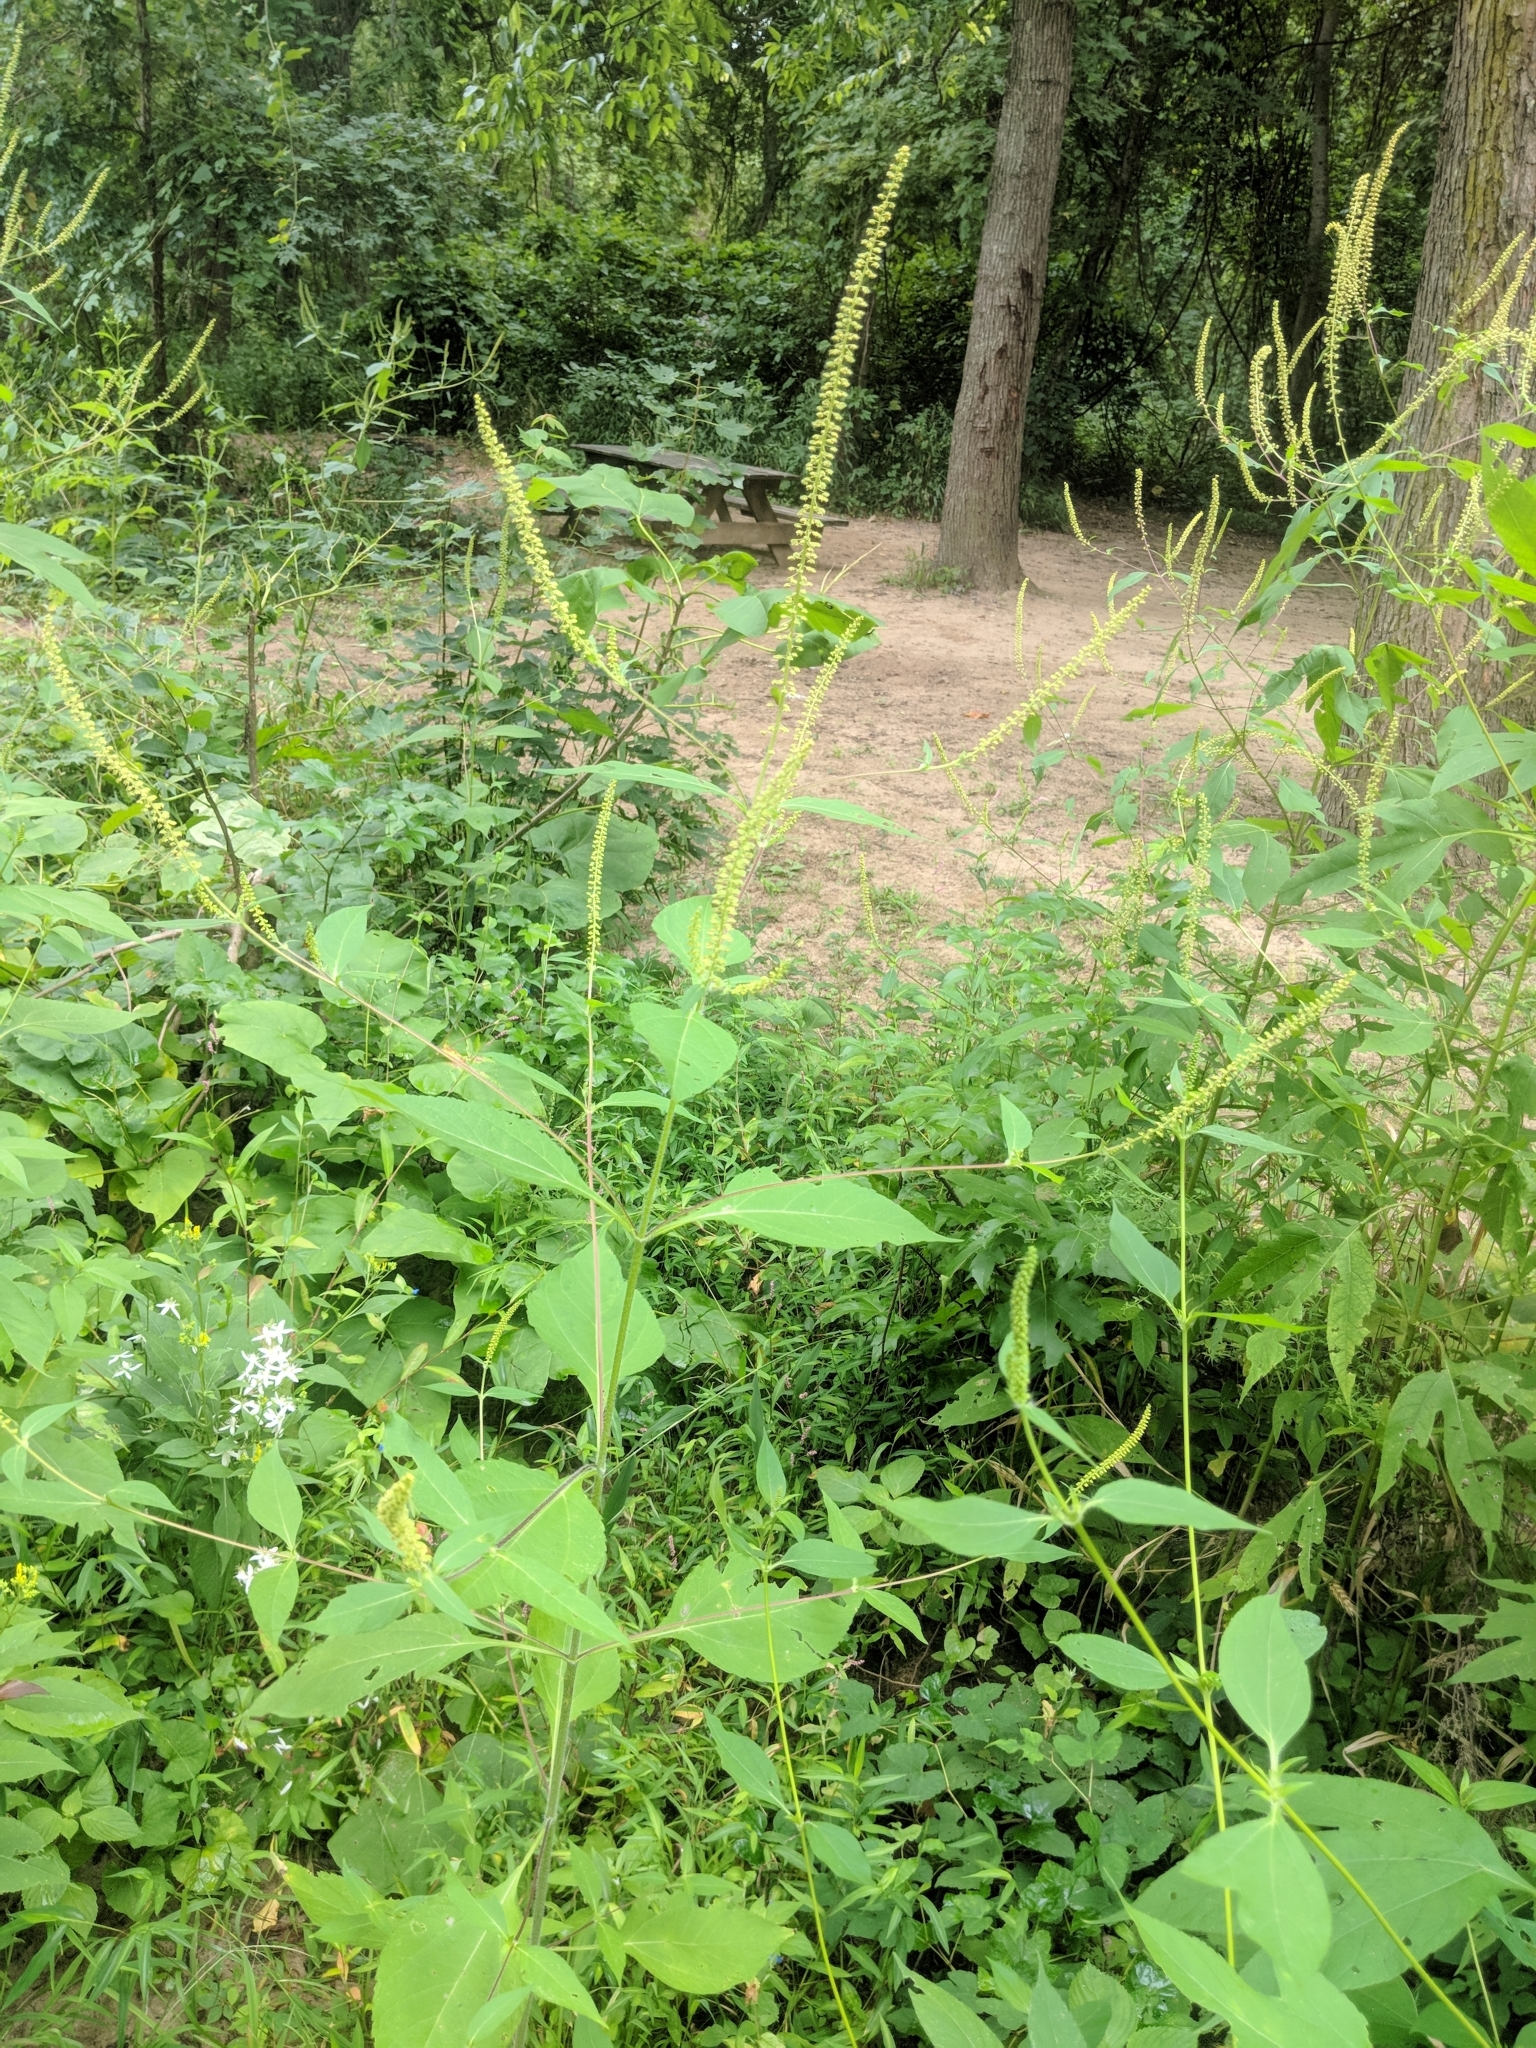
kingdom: Plantae
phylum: Tracheophyta
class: Magnoliopsida
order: Asterales
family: Asteraceae
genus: Ambrosia
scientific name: Ambrosia trifida
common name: Giant ragweed
